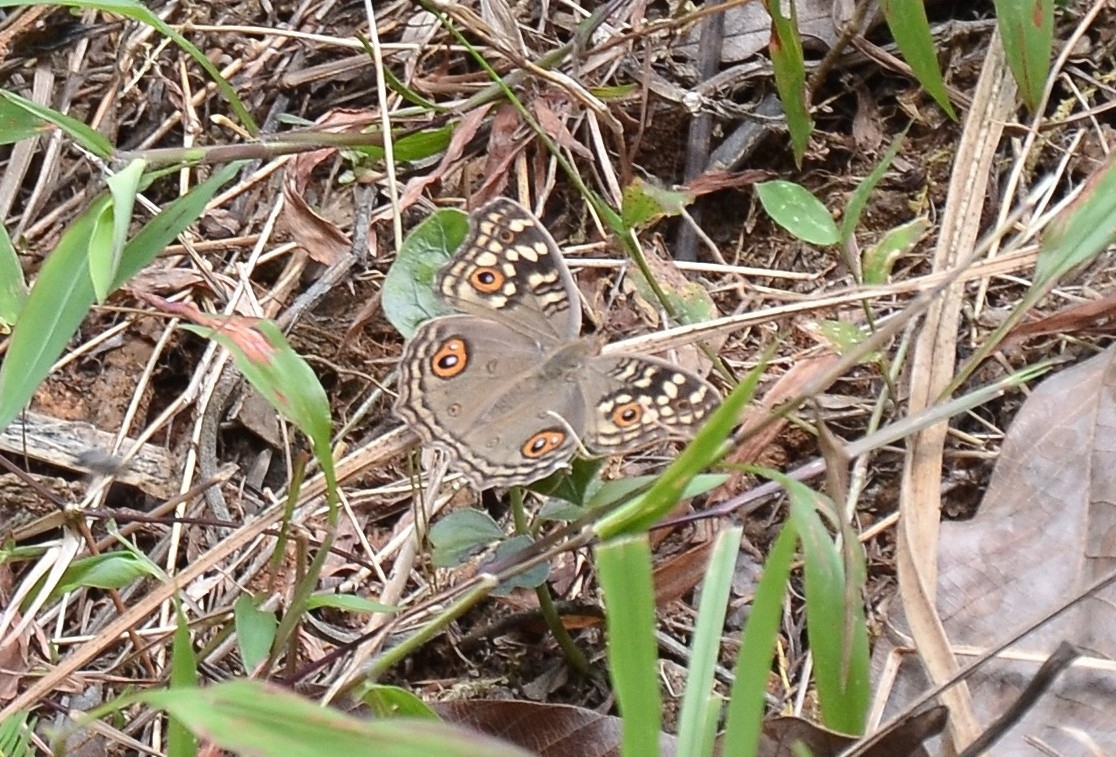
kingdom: Animalia
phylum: Arthropoda
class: Insecta
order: Lepidoptera
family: Nymphalidae
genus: Junonia
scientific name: Junonia lemonias
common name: Lemon pansy
